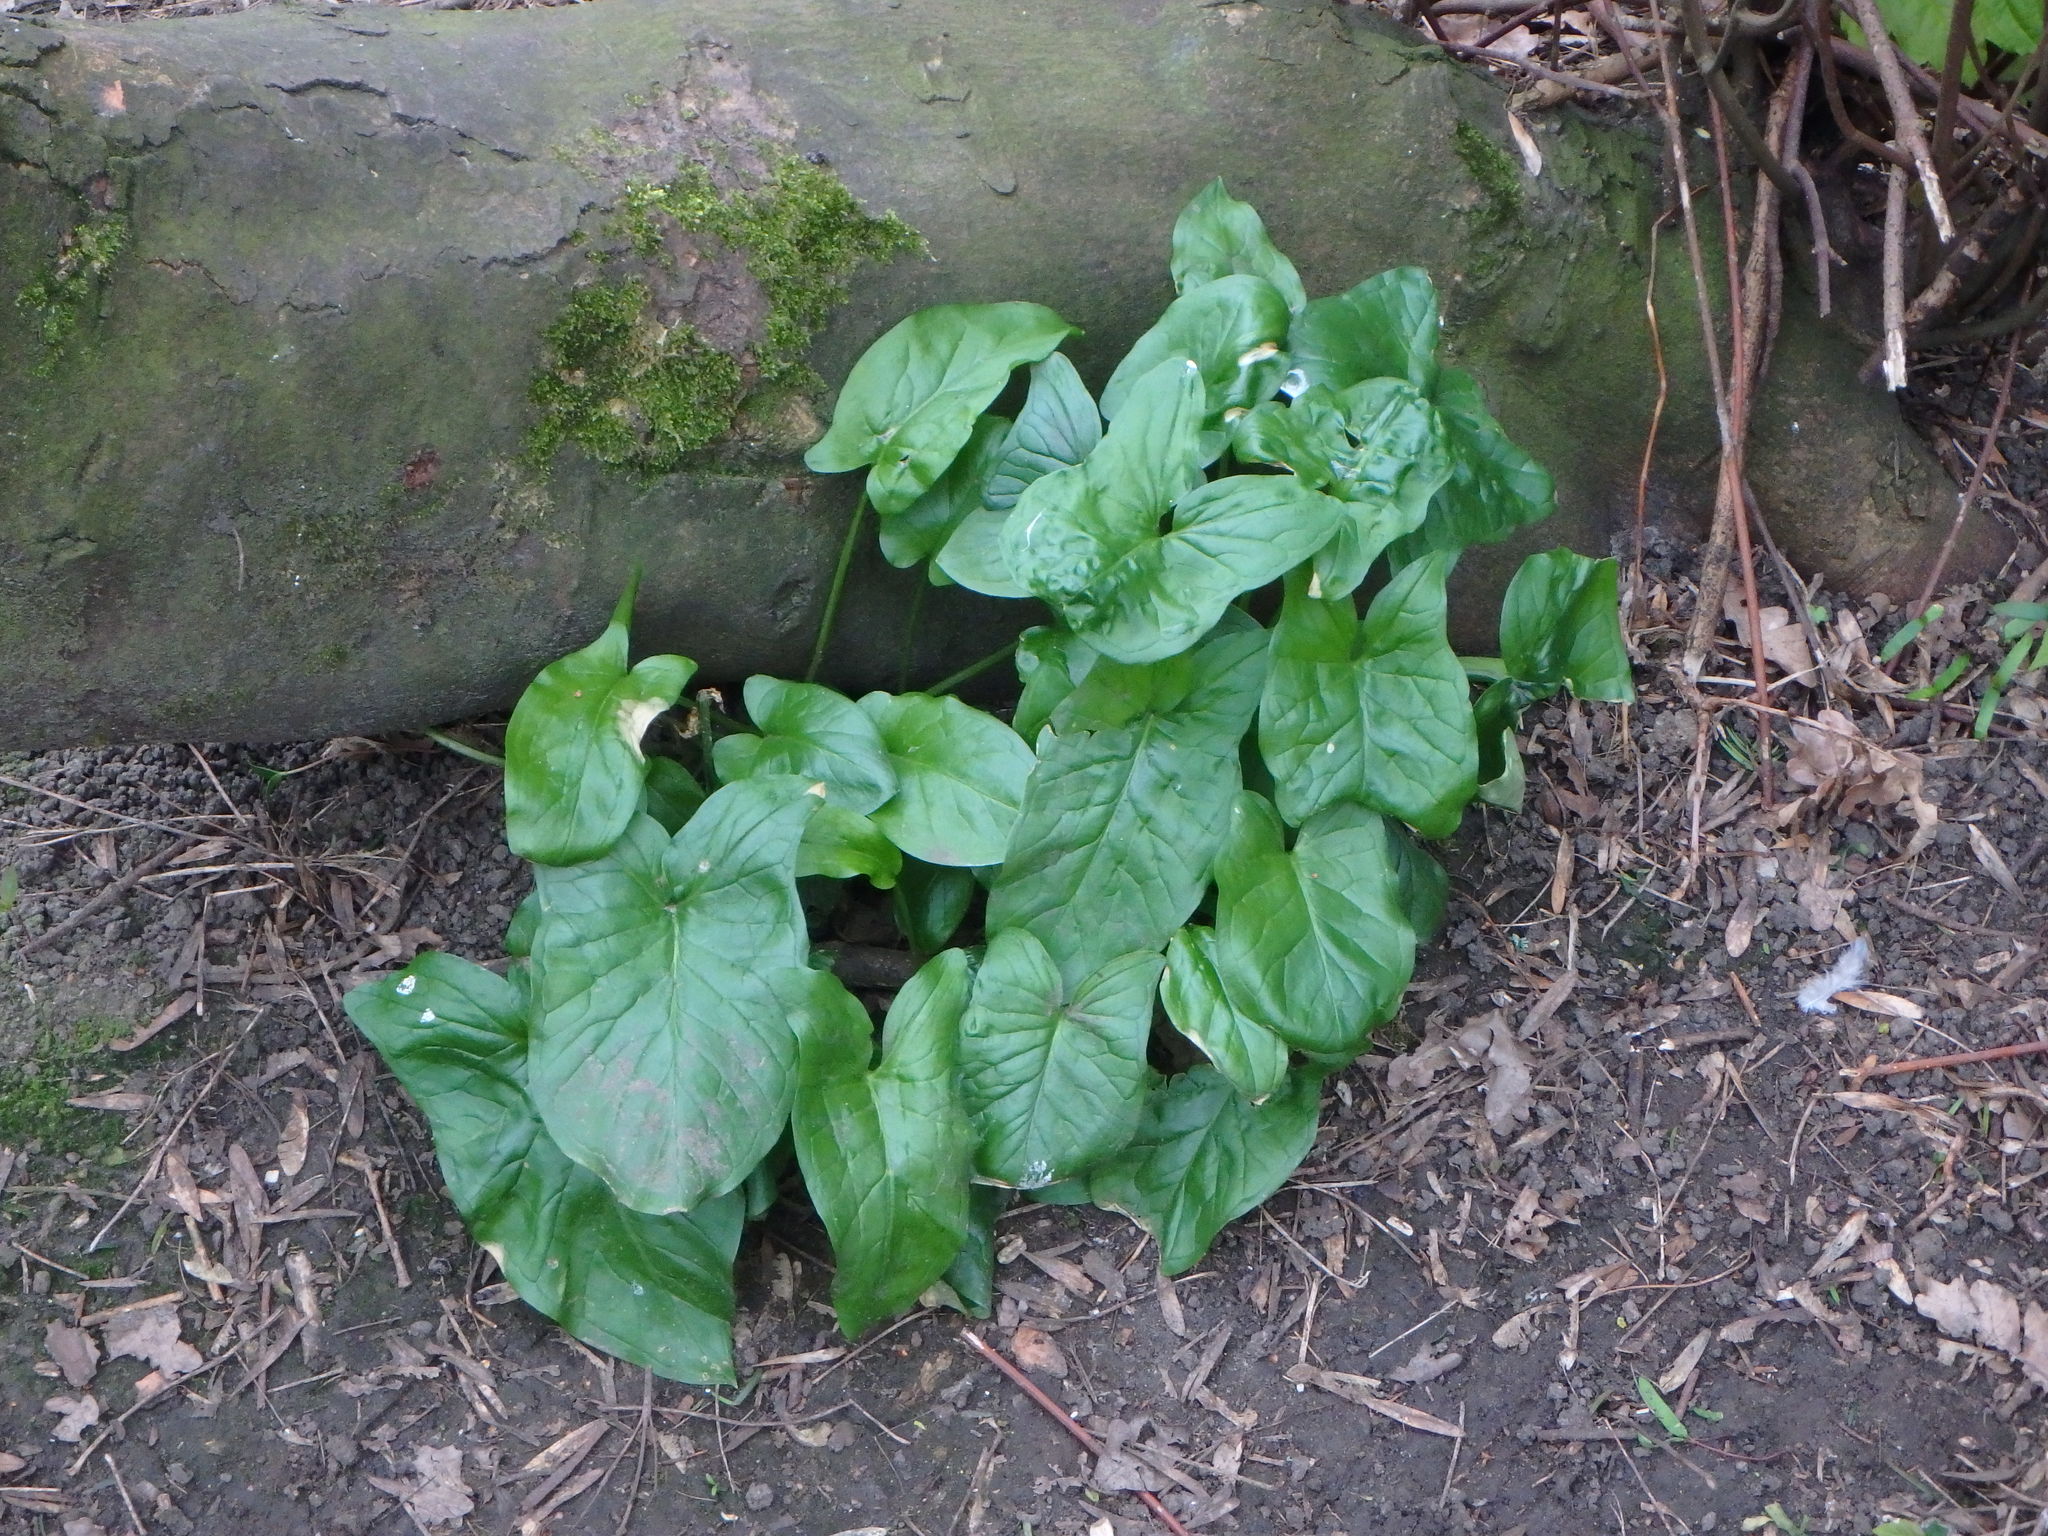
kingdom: Plantae
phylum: Tracheophyta
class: Liliopsida
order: Alismatales
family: Araceae
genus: Arum
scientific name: Arum maculatum
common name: Lords-and-ladies
